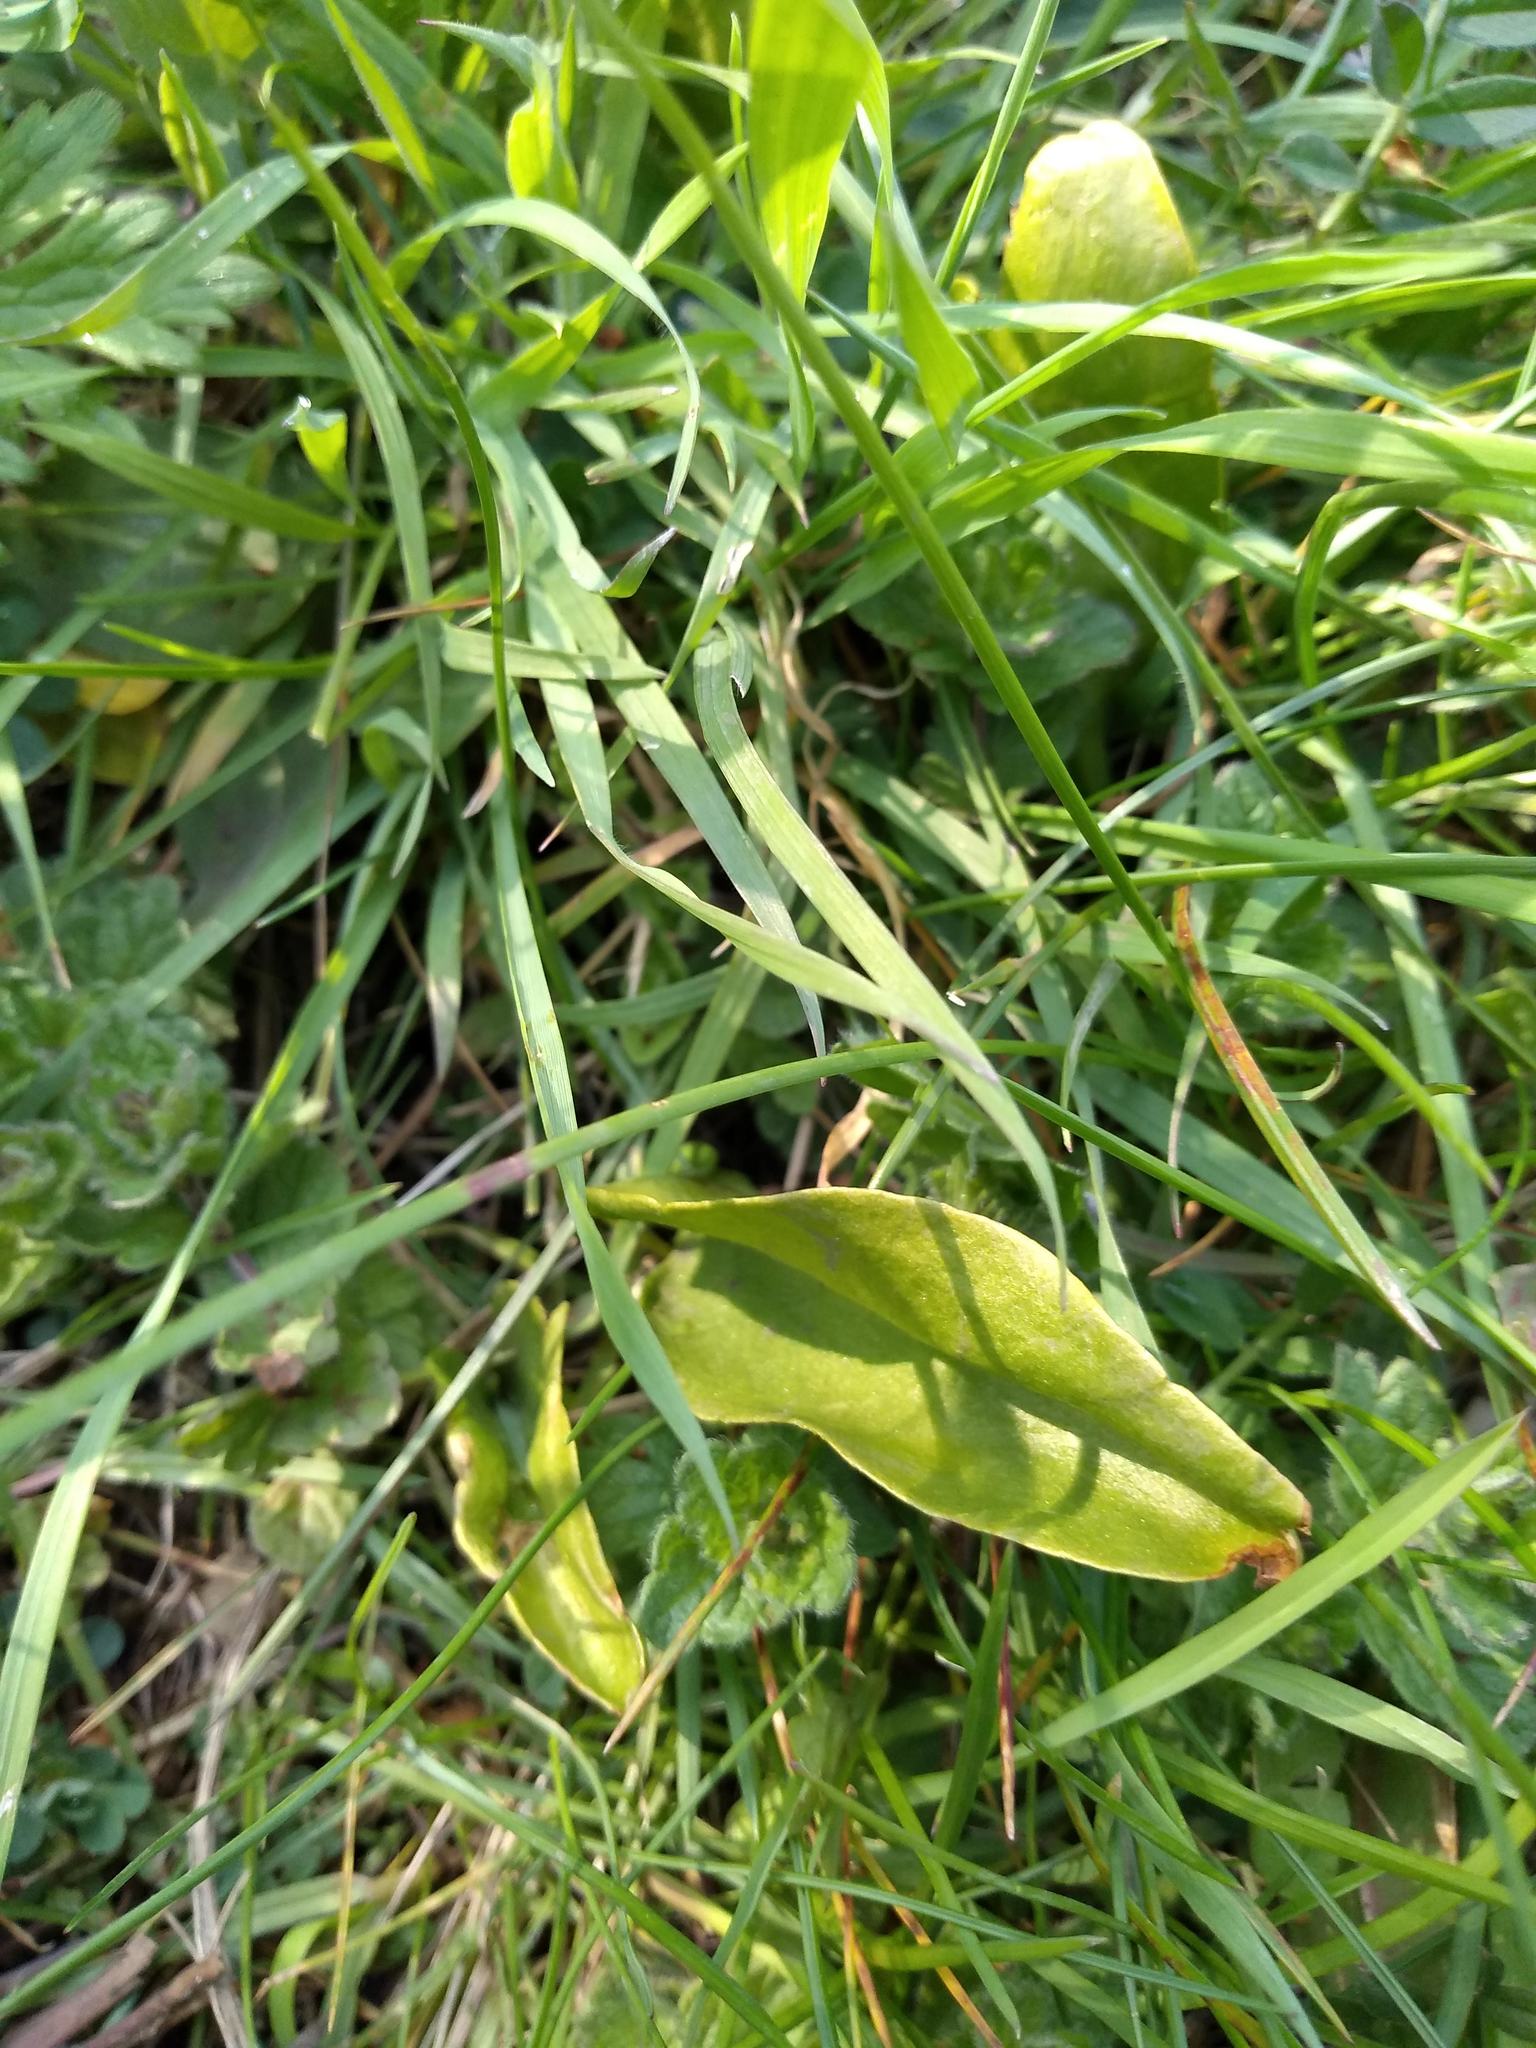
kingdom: Plantae
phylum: Tracheophyta
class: Polypodiopsida
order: Ophioglossales
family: Ophioglossaceae
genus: Ophioglossum
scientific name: Ophioglossum vulgatum
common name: Adder's-tongue
